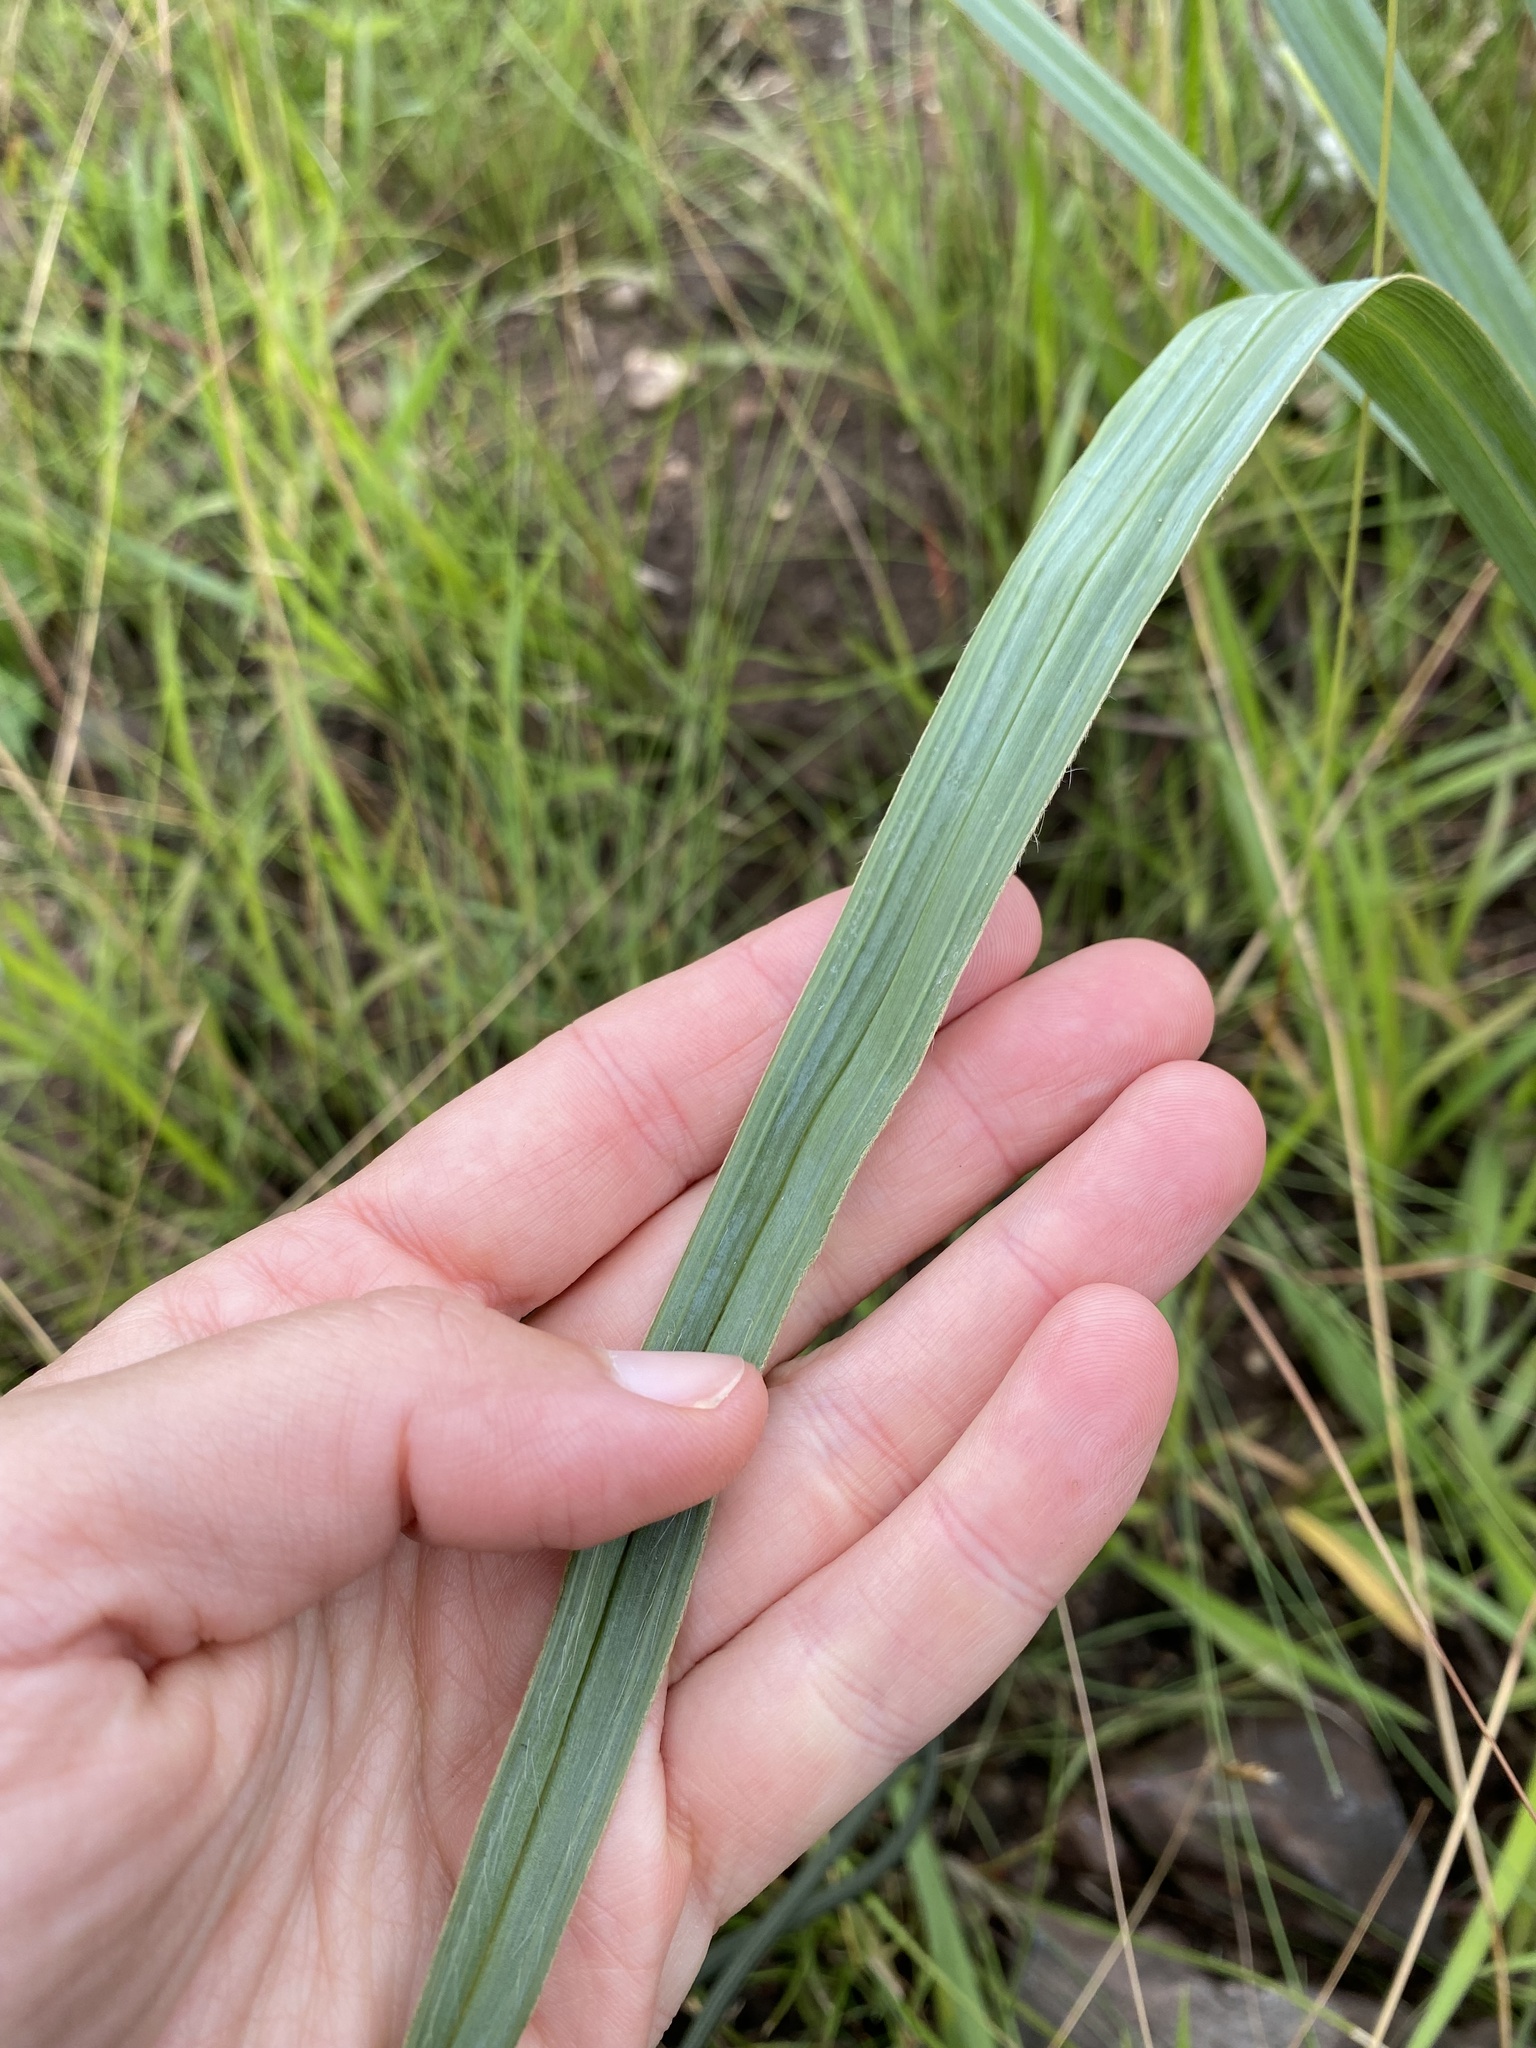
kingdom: Plantae
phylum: Tracheophyta
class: Liliopsida
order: Asparagales
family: Hypoxidaceae
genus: Hypoxis
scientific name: Hypoxis rigidula
